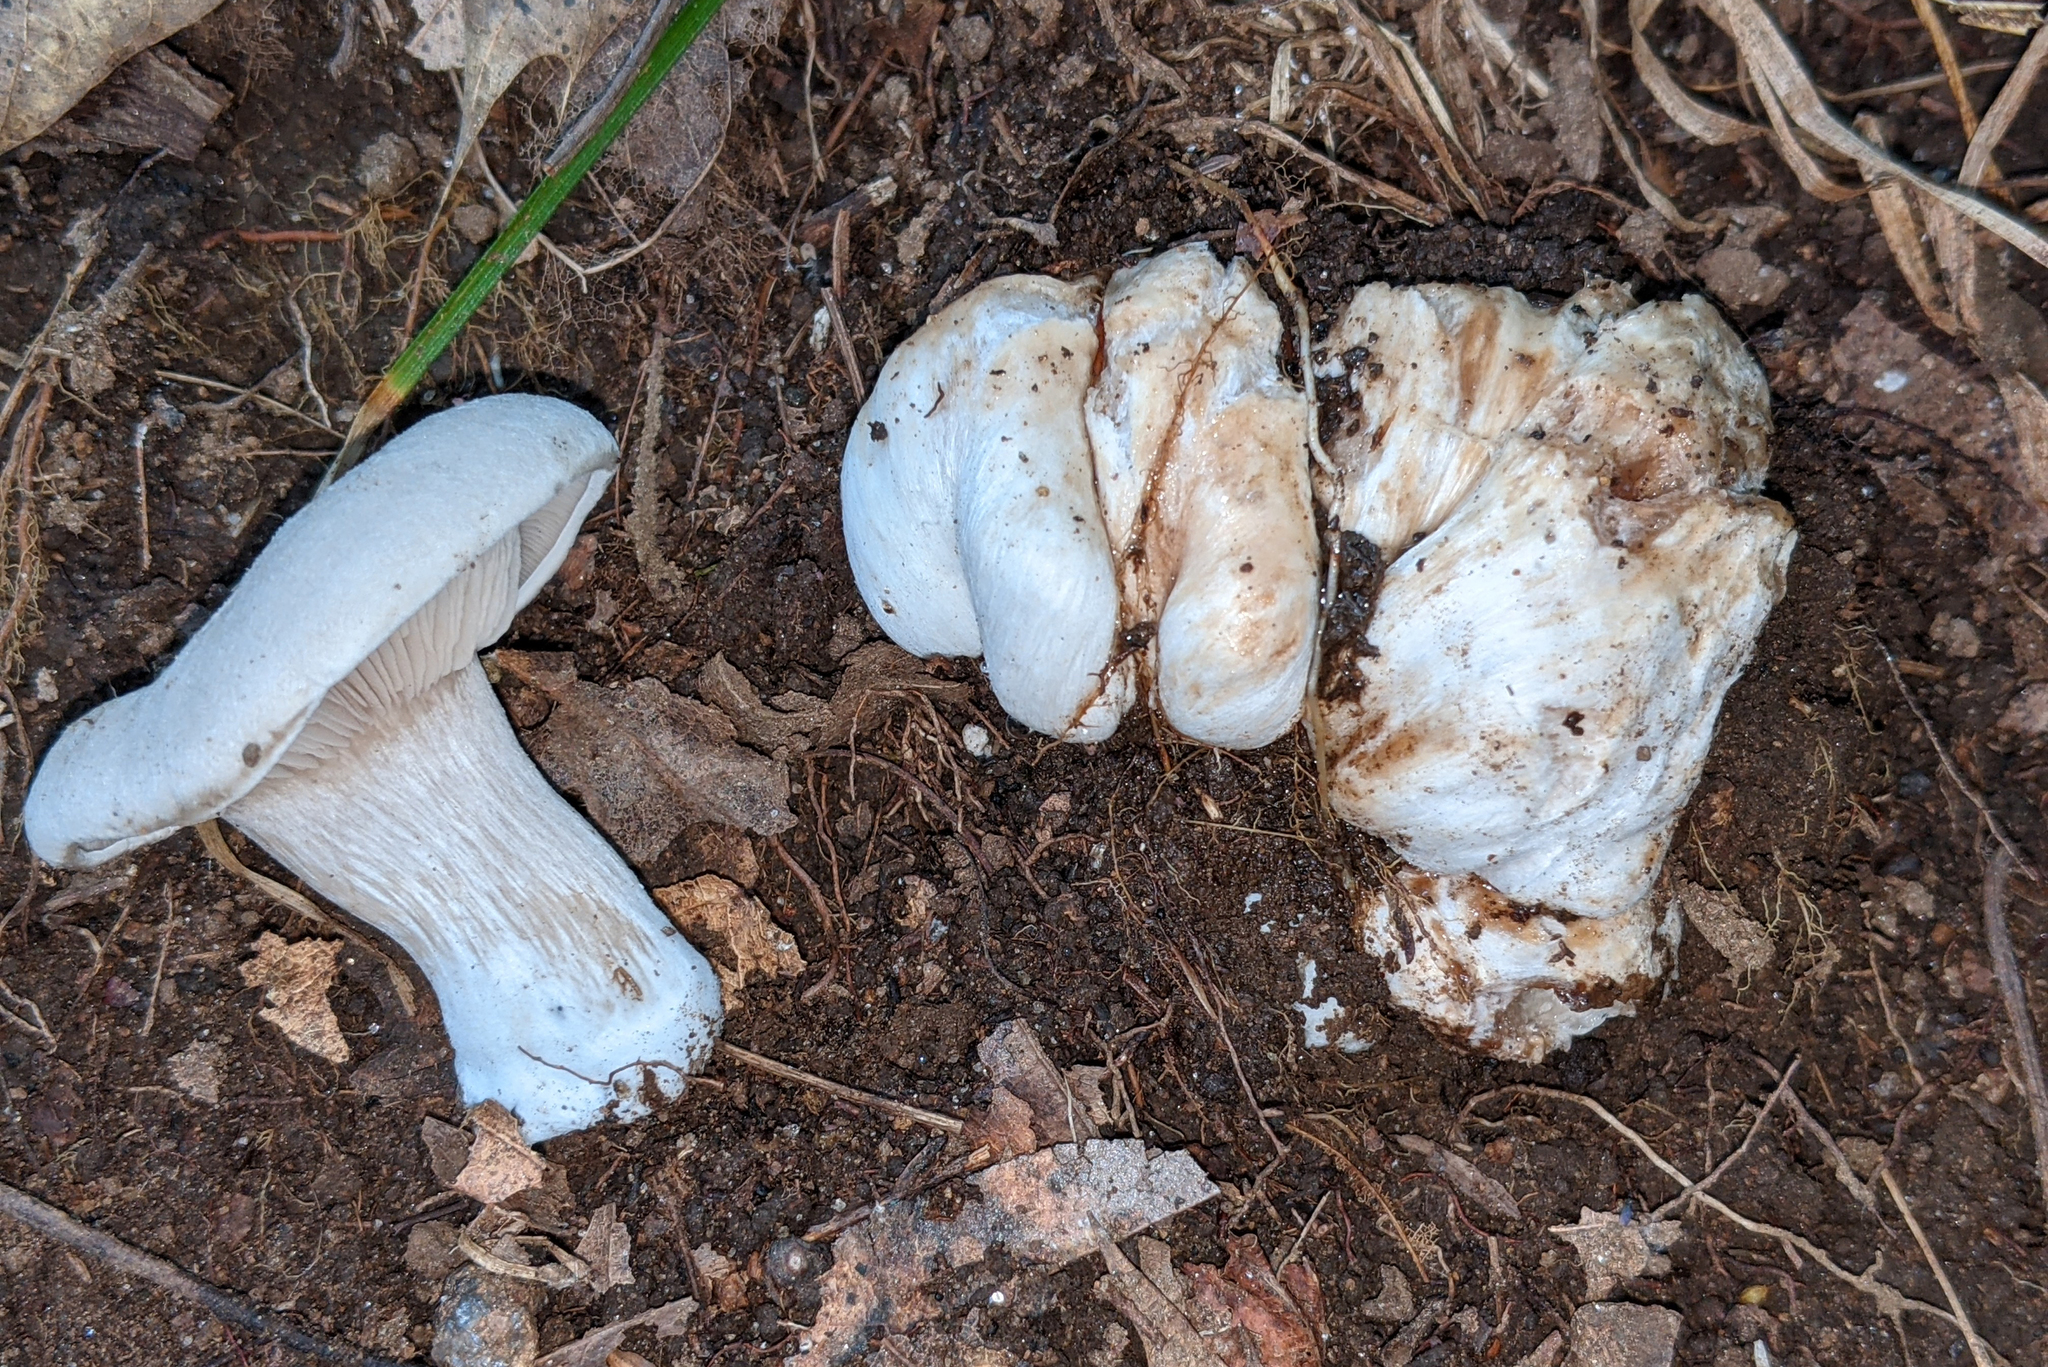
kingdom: Fungi
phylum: Basidiomycota
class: Agaricomycetes
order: Agaricales
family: Entolomataceae
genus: Entoloma
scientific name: Entoloma abortivum
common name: Aborted entoloma
